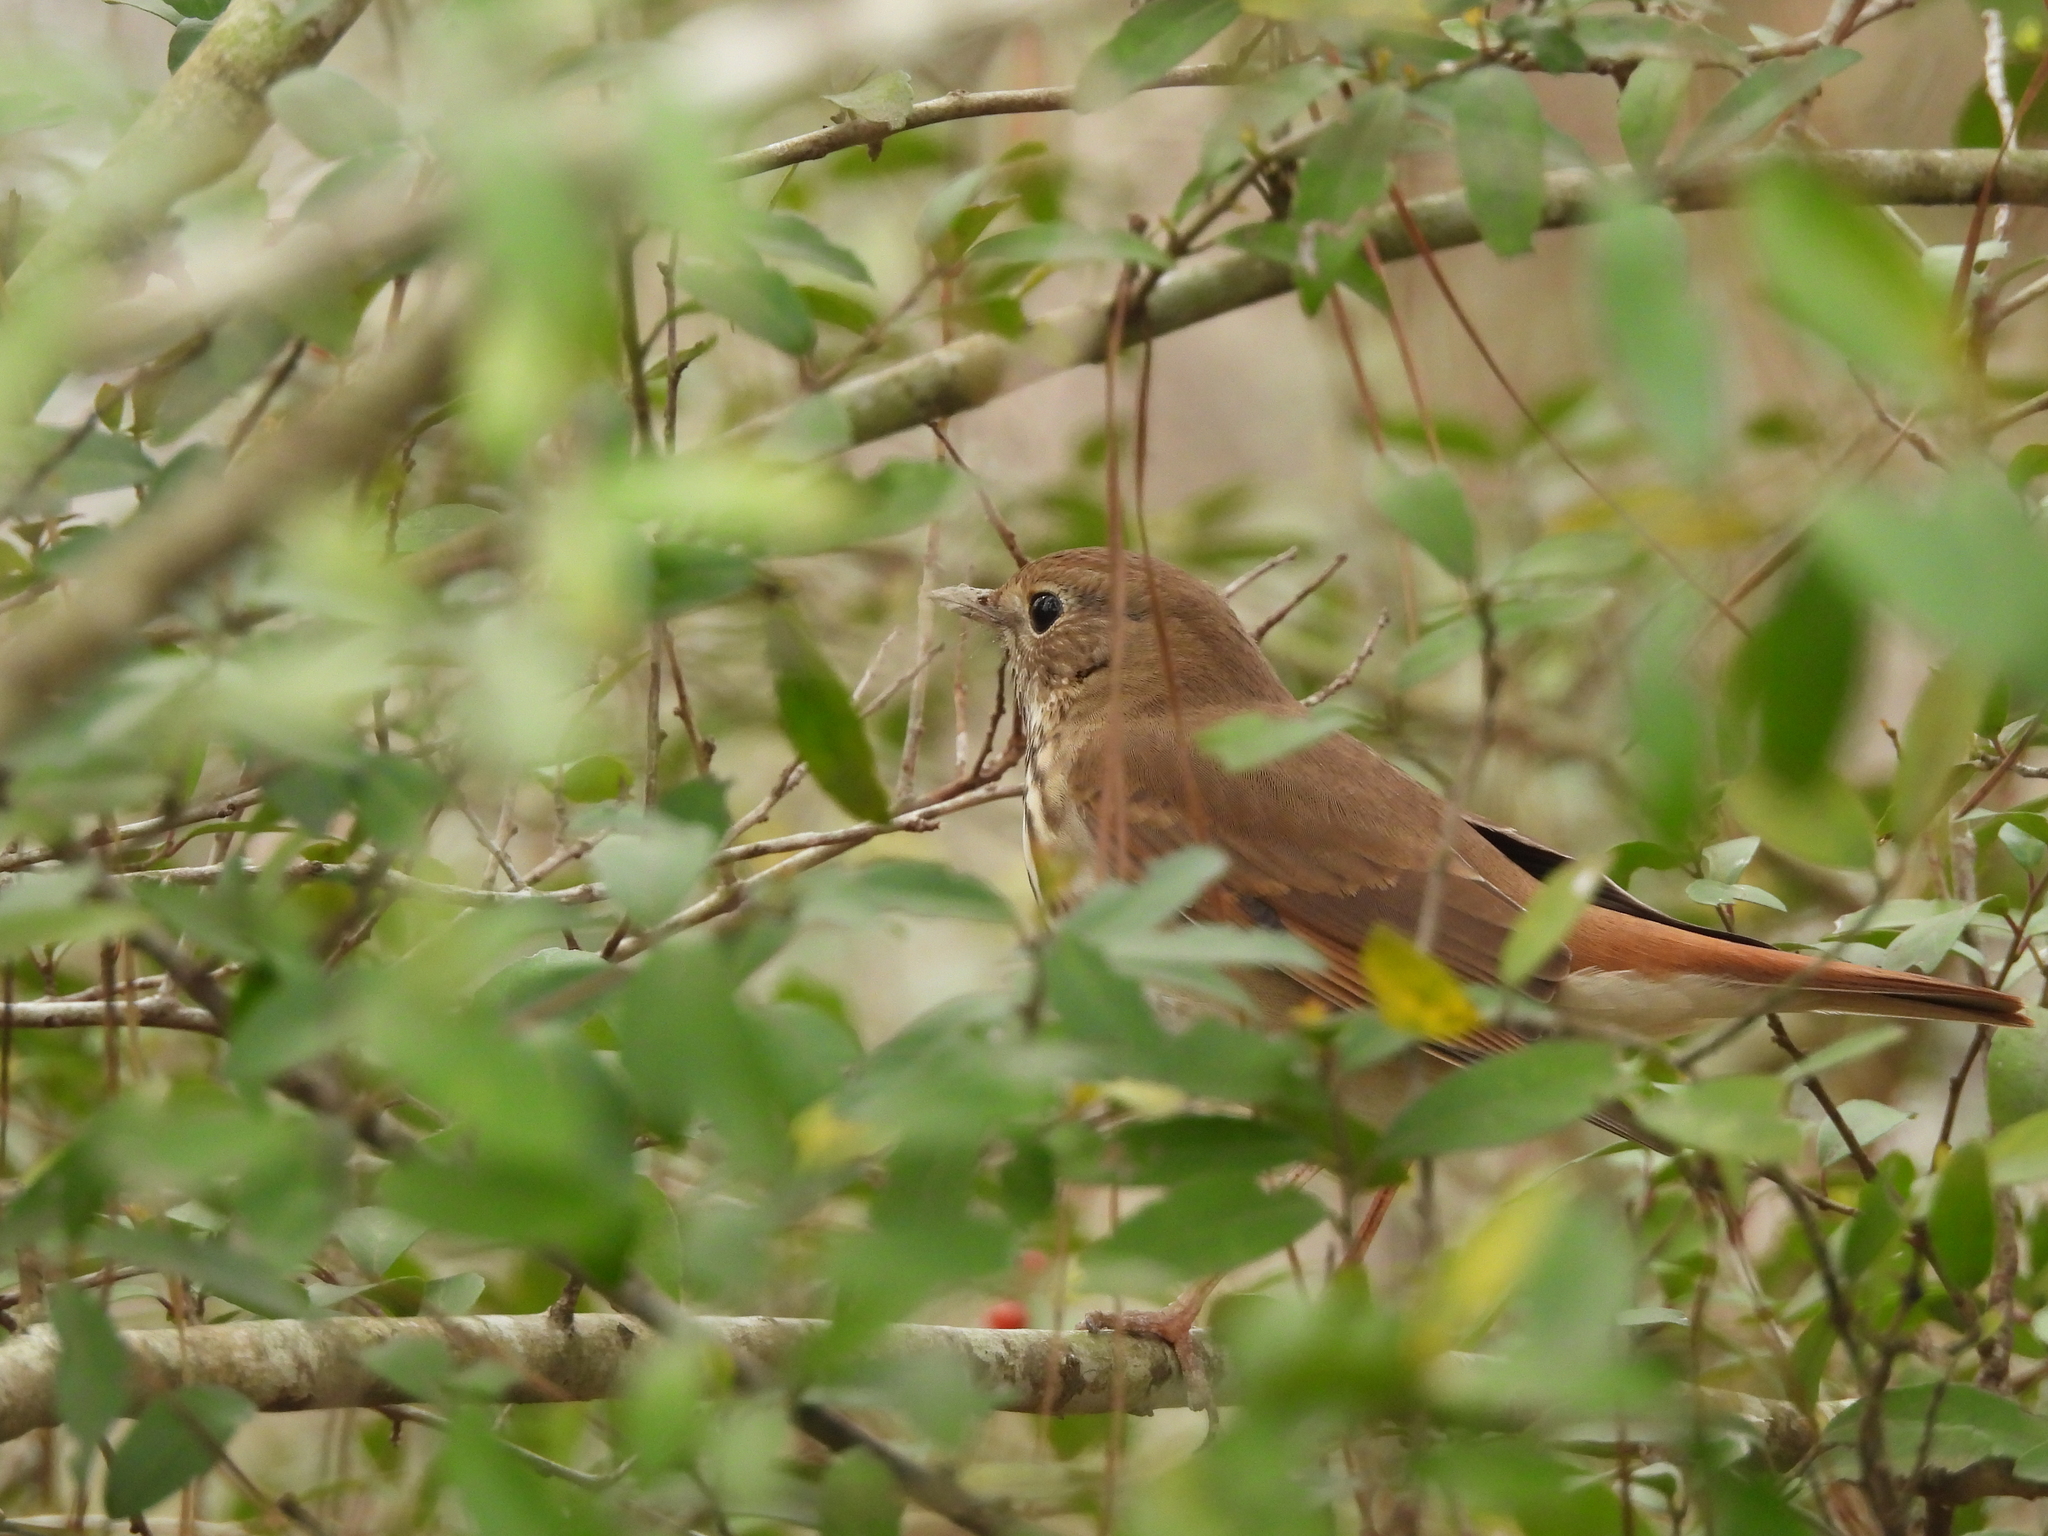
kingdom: Animalia
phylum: Chordata
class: Aves
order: Passeriformes
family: Turdidae
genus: Catharus
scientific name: Catharus guttatus
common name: Hermit thrush
